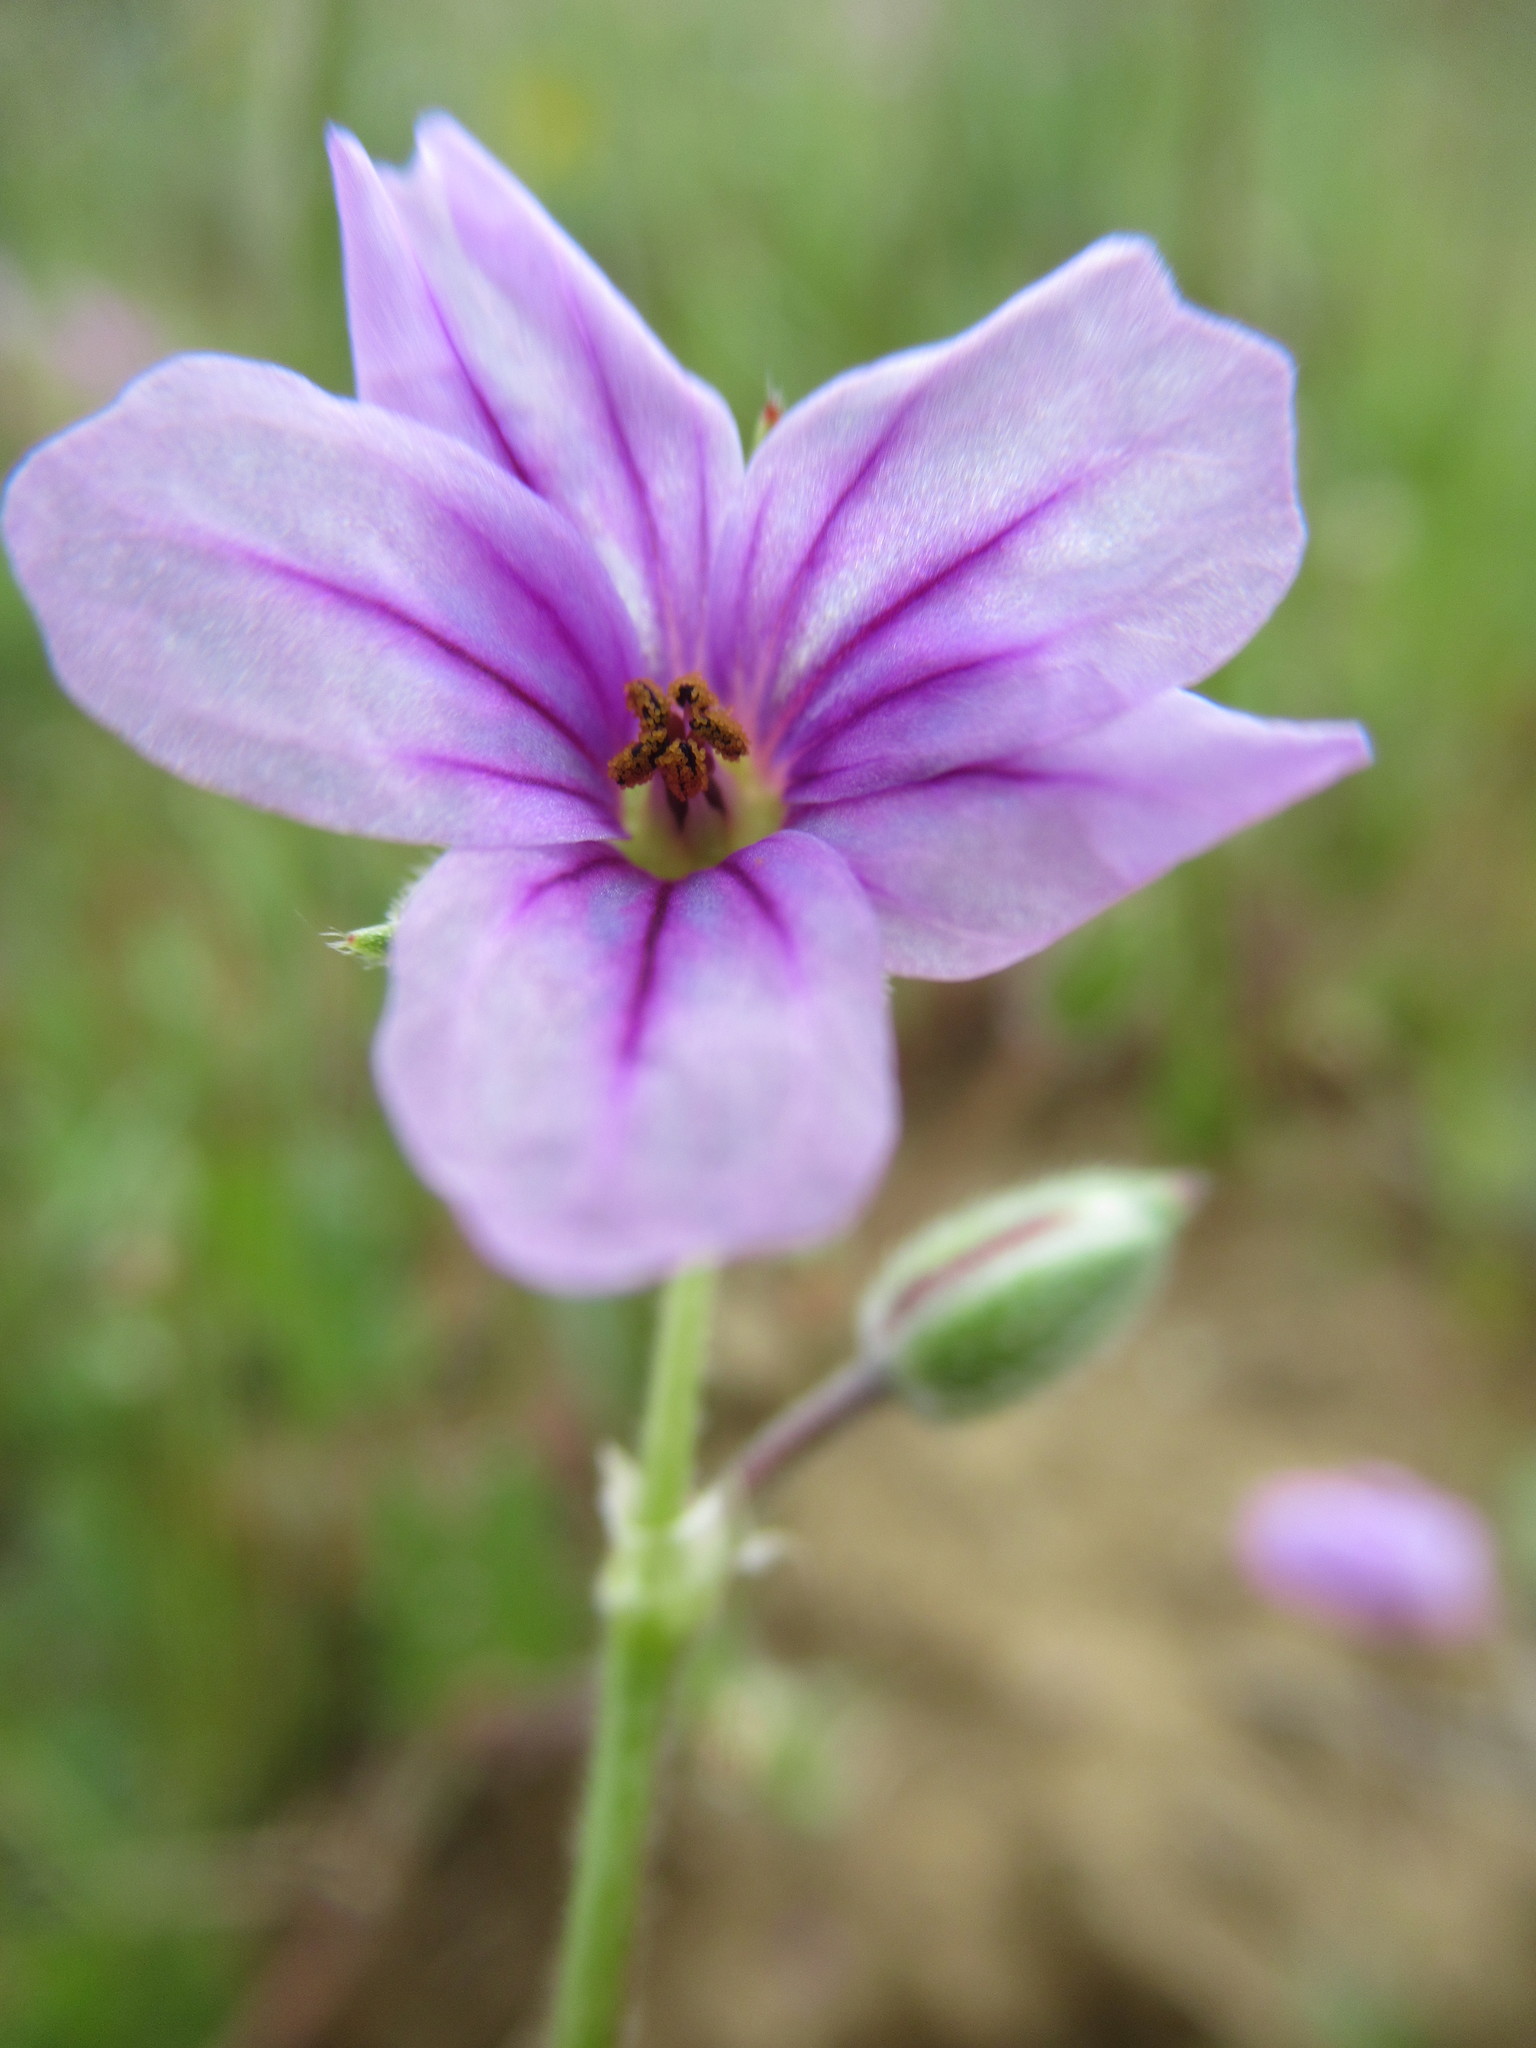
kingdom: Plantae
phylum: Tracheophyta
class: Magnoliopsida
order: Geraniales
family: Geraniaceae
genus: Erodium
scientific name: Erodium botrys
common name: Mediterranean stork's-bill
